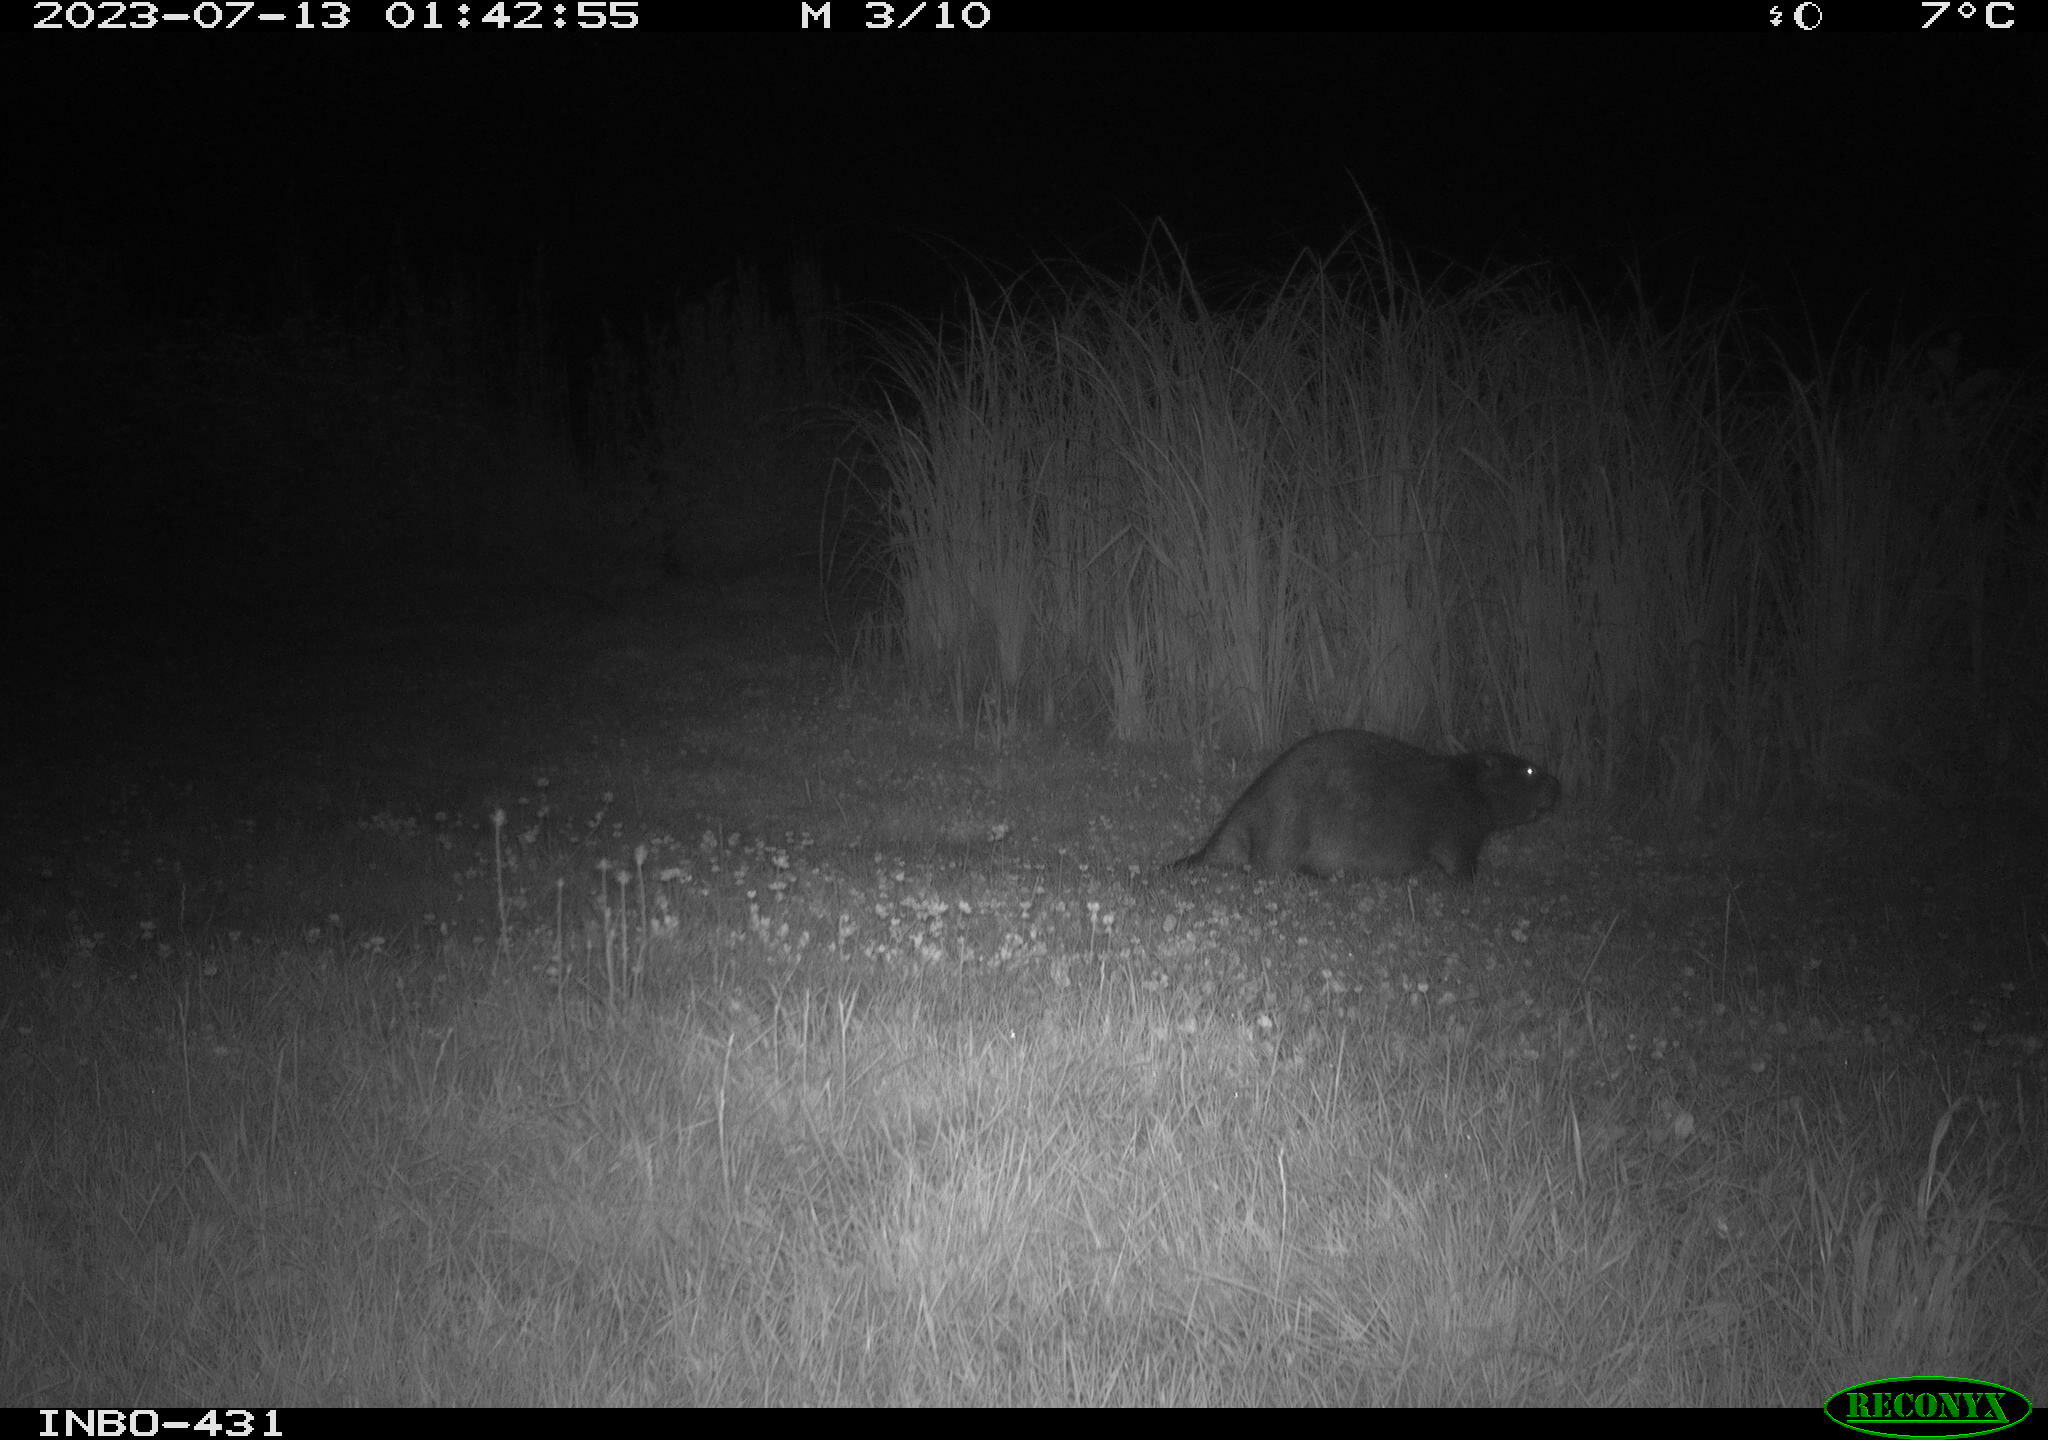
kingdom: Animalia
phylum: Chordata
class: Mammalia
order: Rodentia
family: Castoridae
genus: Castor
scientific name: Castor fiber
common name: Eurasian beaver
